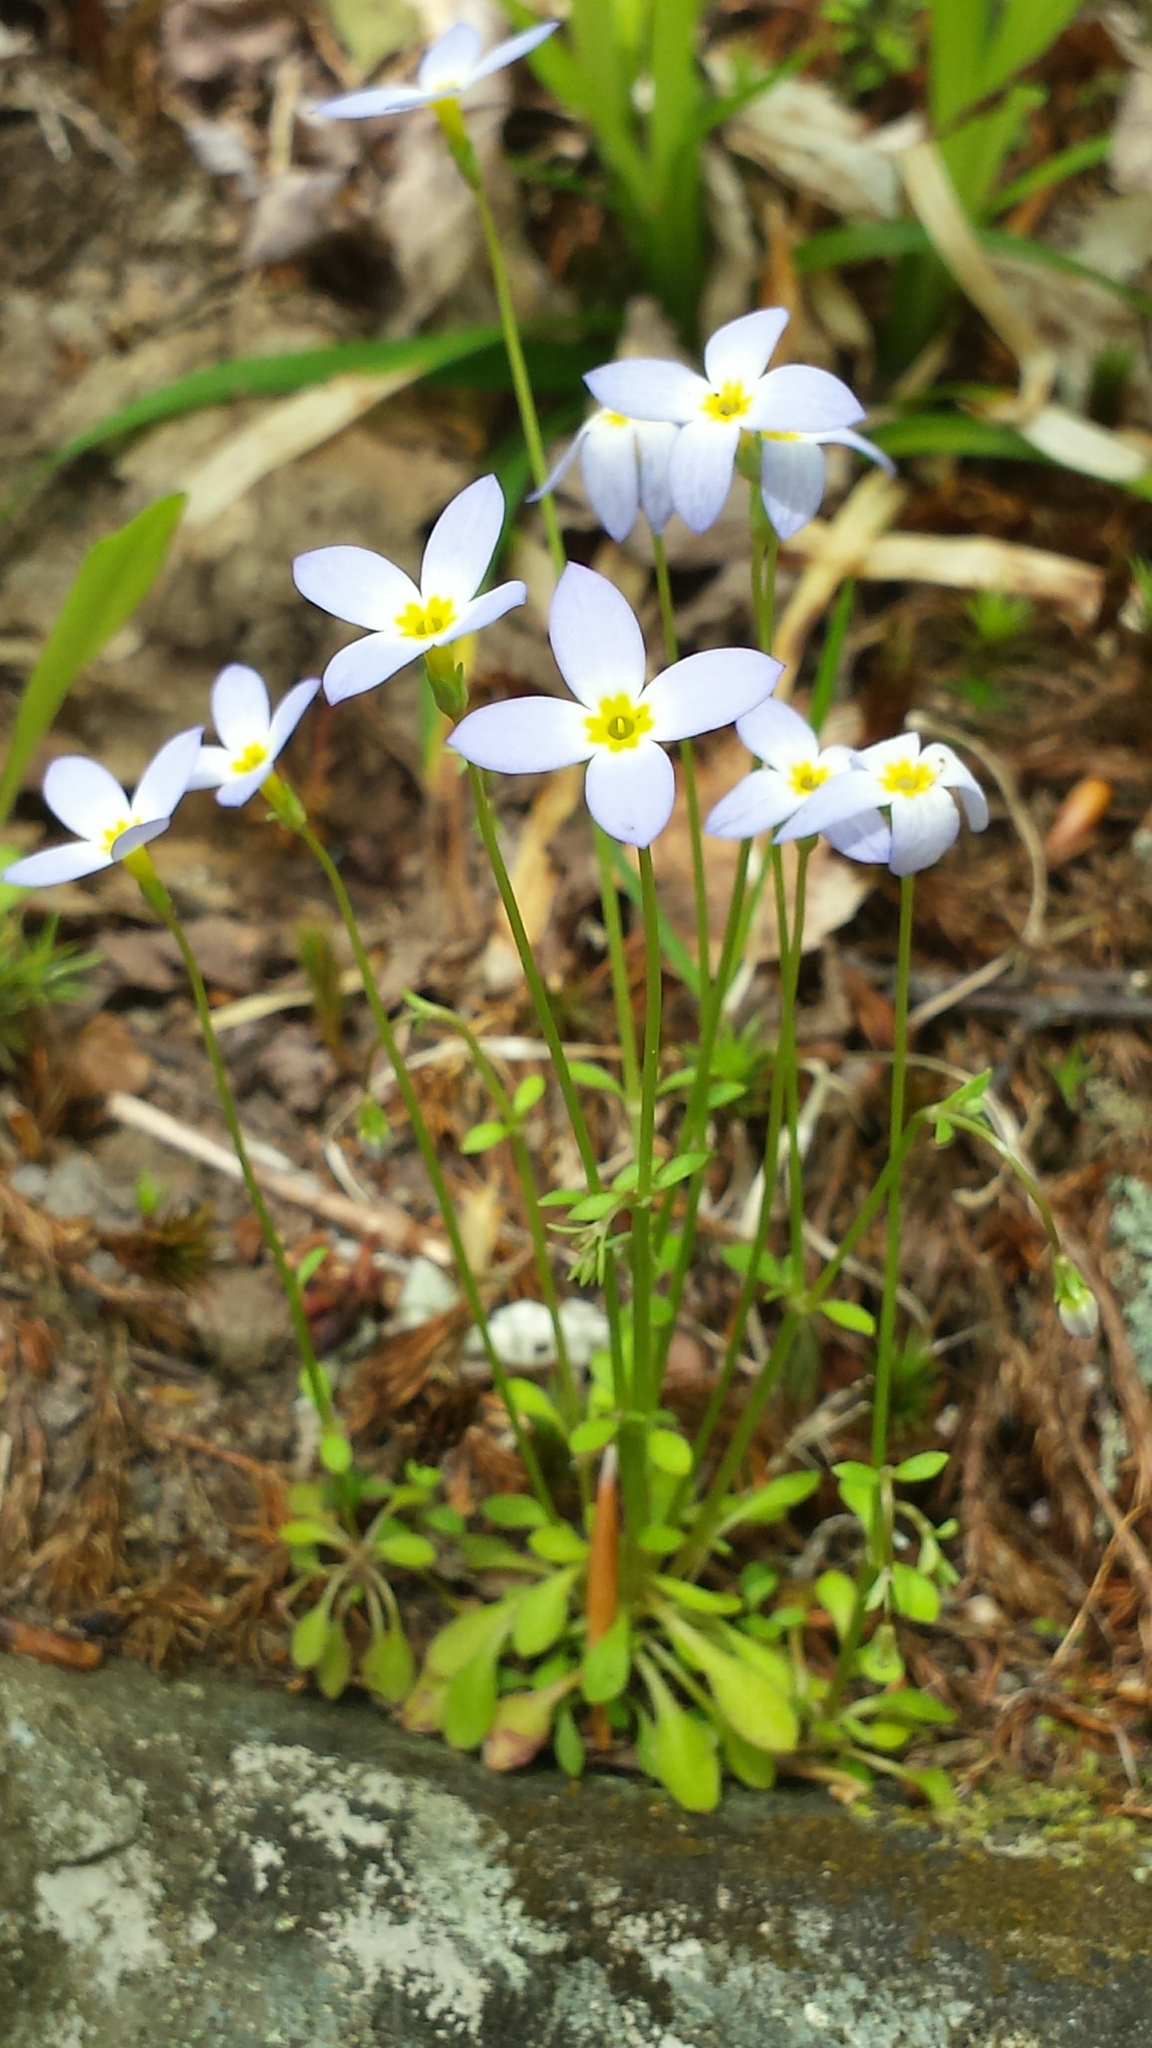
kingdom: Plantae
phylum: Tracheophyta
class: Magnoliopsida
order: Gentianales
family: Rubiaceae
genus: Houstonia
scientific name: Houstonia caerulea
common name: Bluets
